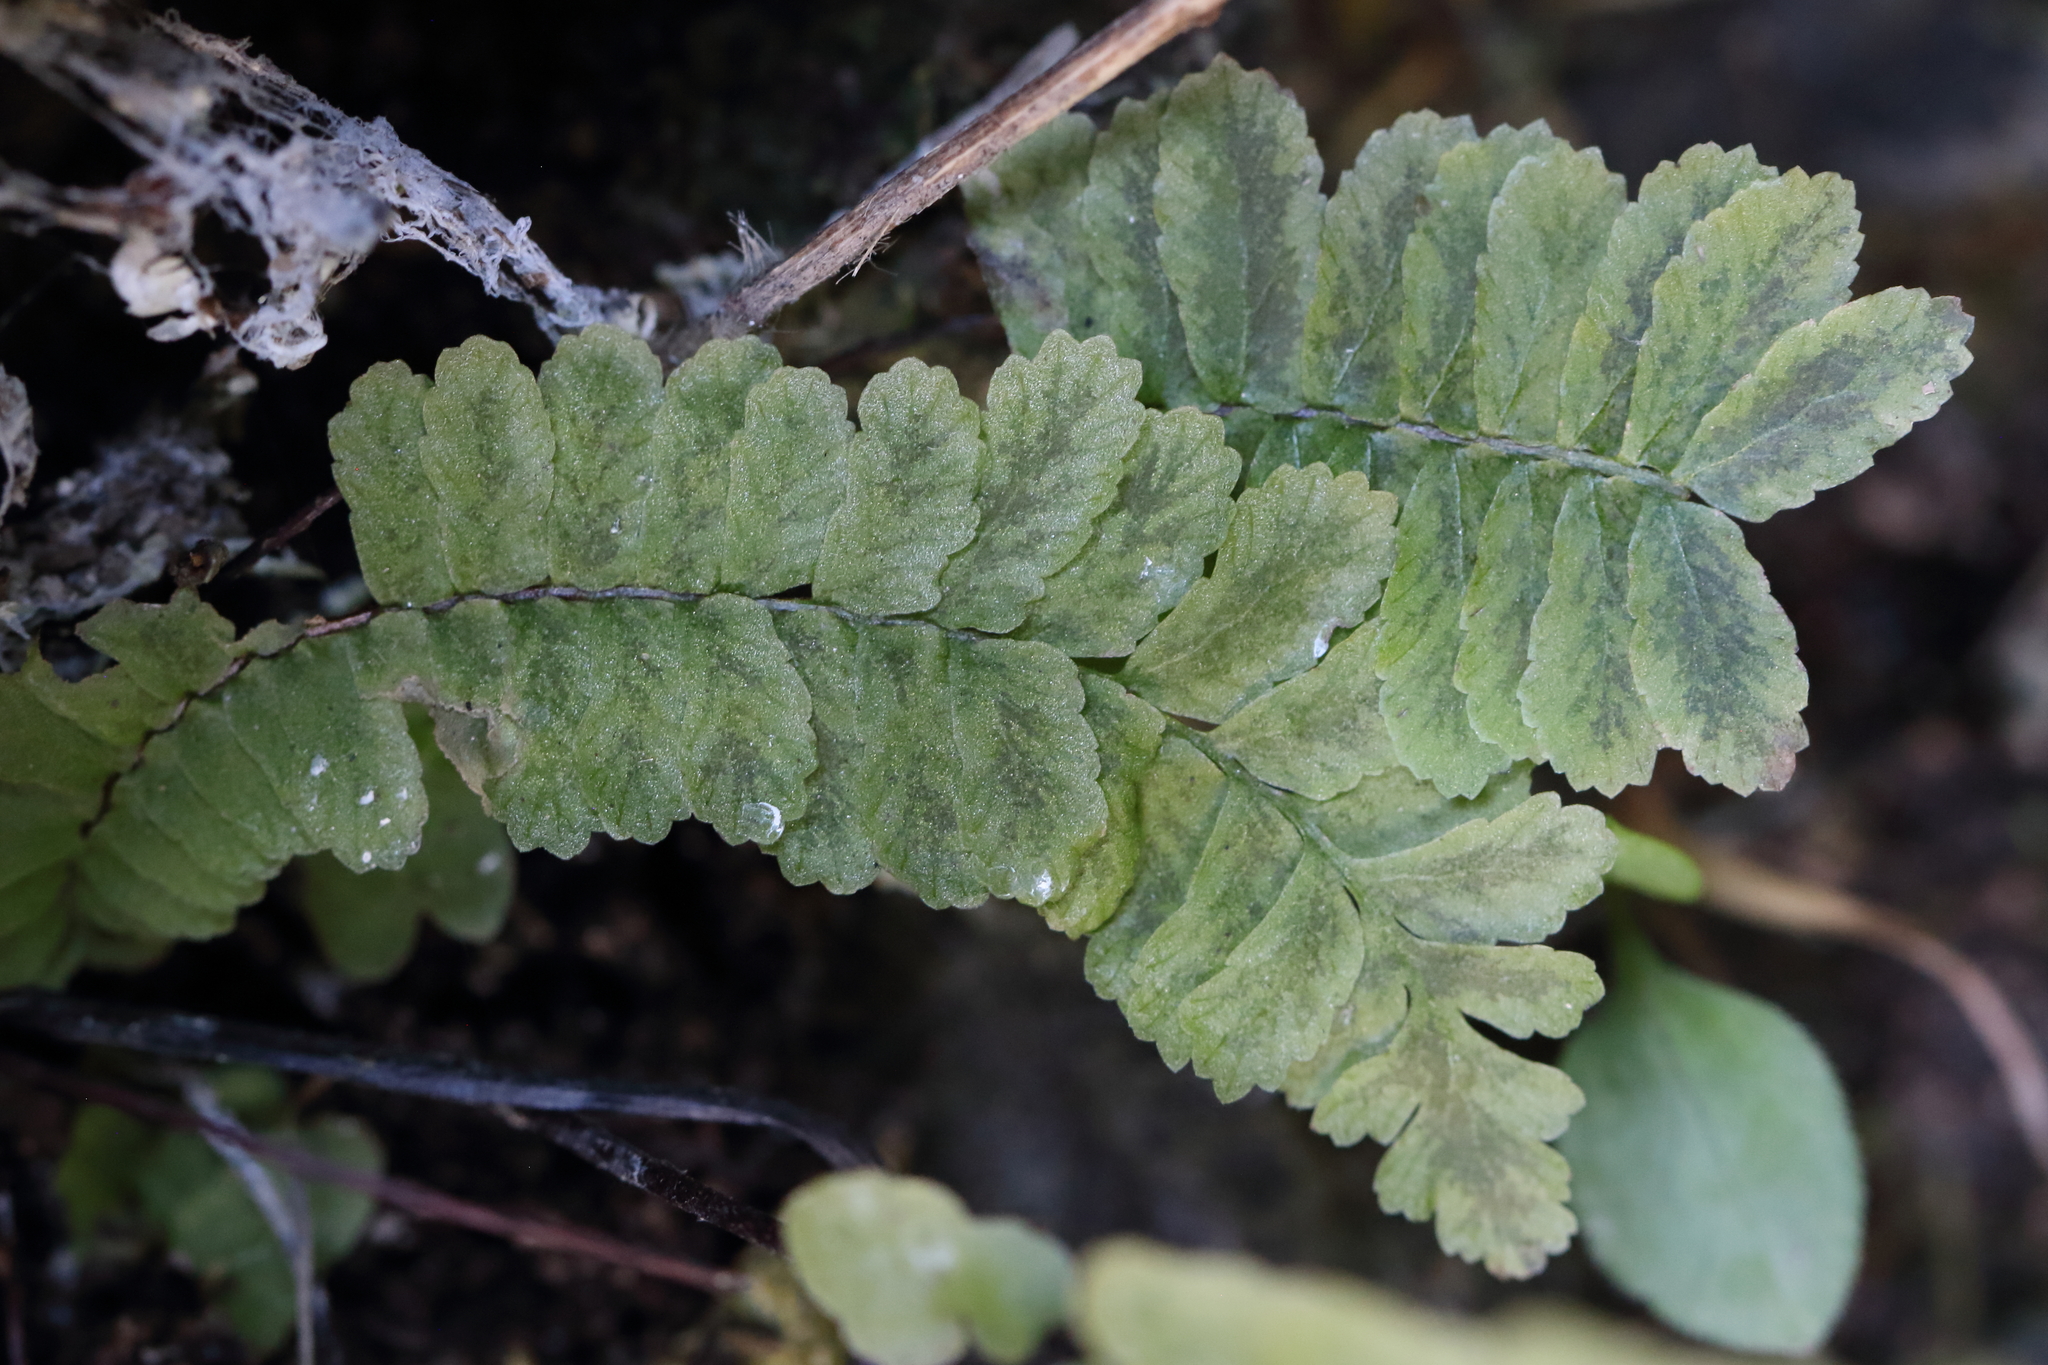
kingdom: Plantae
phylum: Tracheophyta
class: Polypodiopsida
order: Polypodiales
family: Aspleniaceae
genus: Asplenium
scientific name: Asplenium platyneuron
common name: Ebony spleenwort
